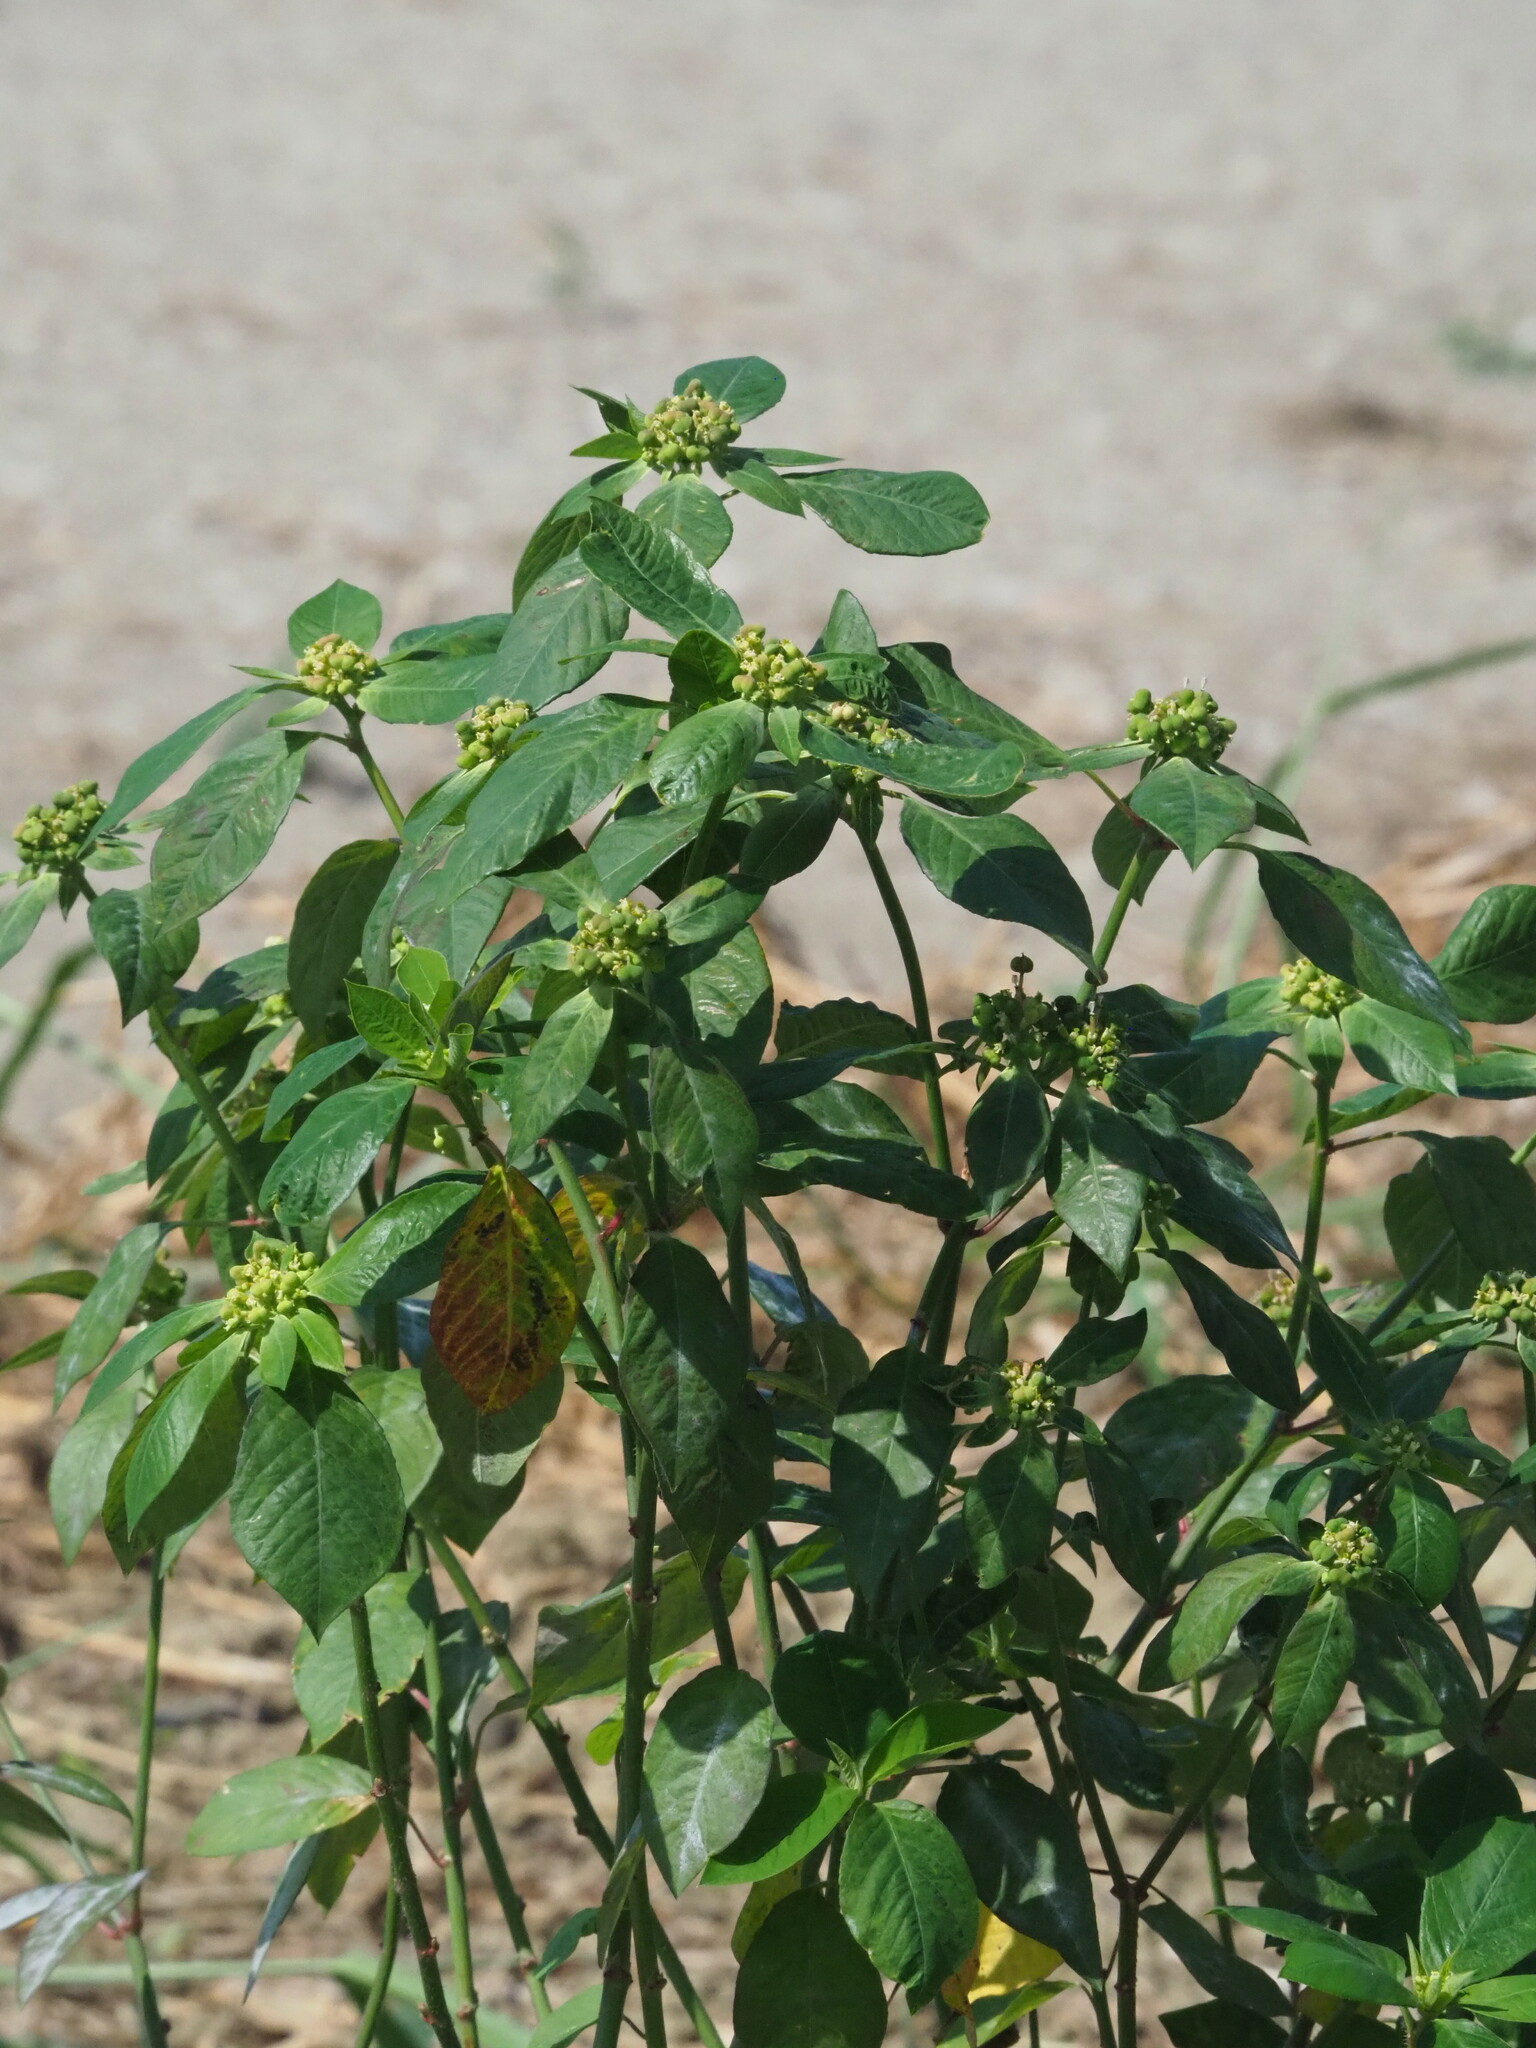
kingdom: Plantae
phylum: Tracheophyta
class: Magnoliopsida
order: Malpighiales
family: Euphorbiaceae
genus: Euphorbia
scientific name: Euphorbia heterophylla
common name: Mexican fireplant
